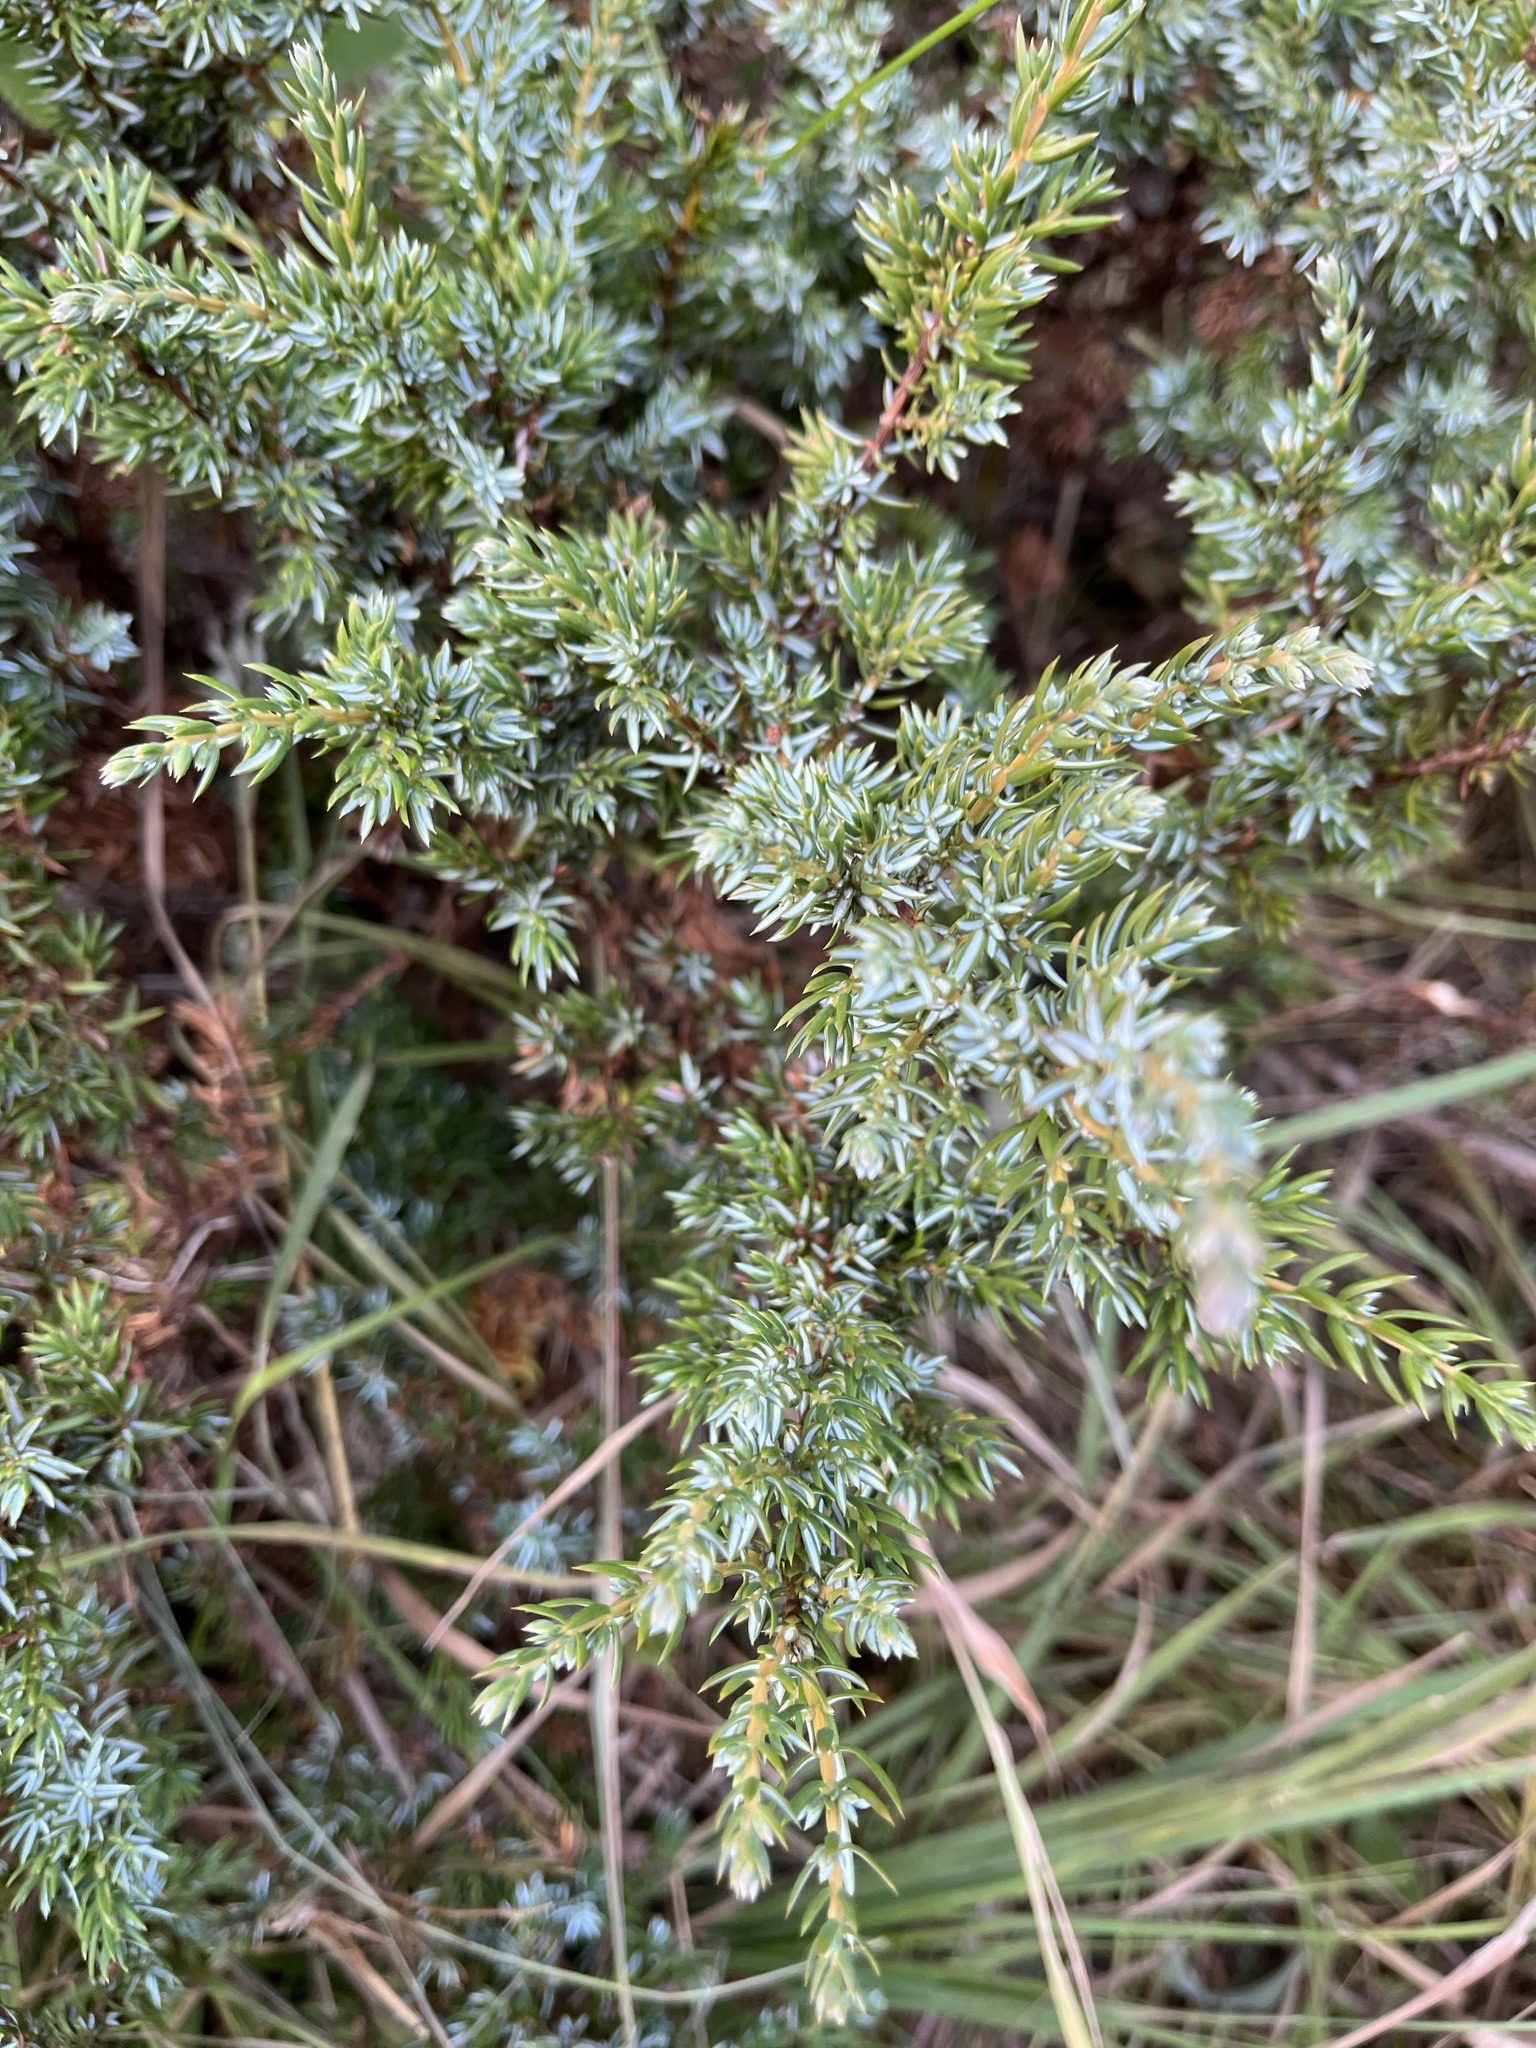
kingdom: Plantae
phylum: Tracheophyta
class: Pinopsida
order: Pinales
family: Cupressaceae
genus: Juniperus
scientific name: Juniperus communis
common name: Common juniper
